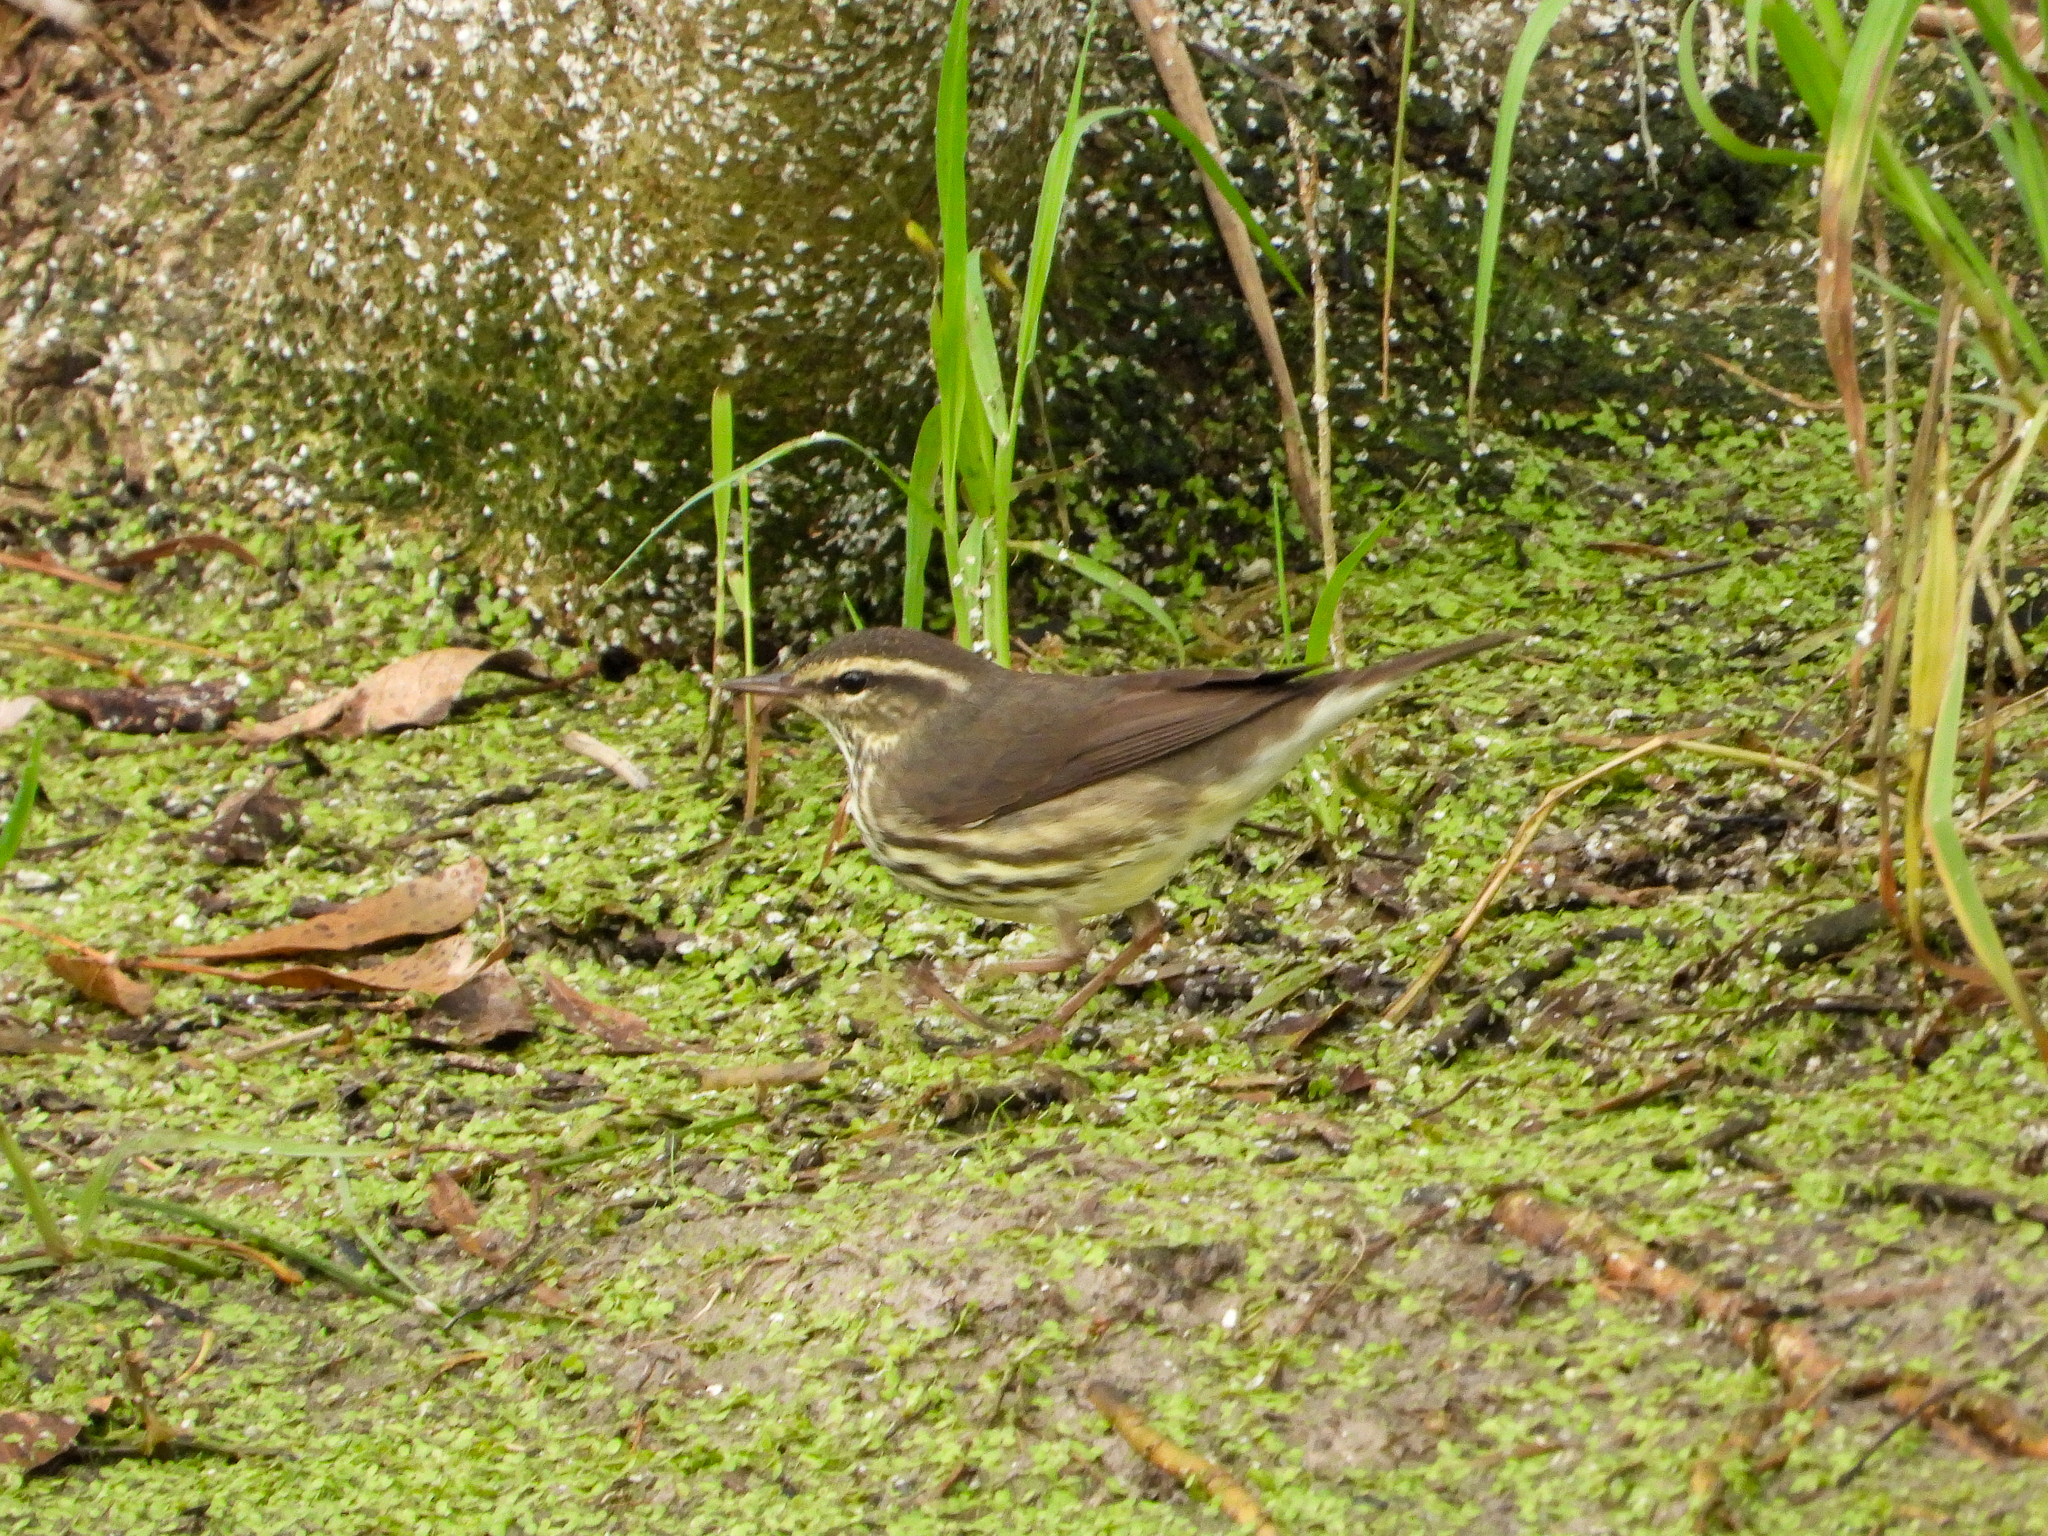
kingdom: Animalia
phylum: Chordata
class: Aves
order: Passeriformes
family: Parulidae
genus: Parkesia
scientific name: Parkesia noveboracensis
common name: Northern waterthrush
